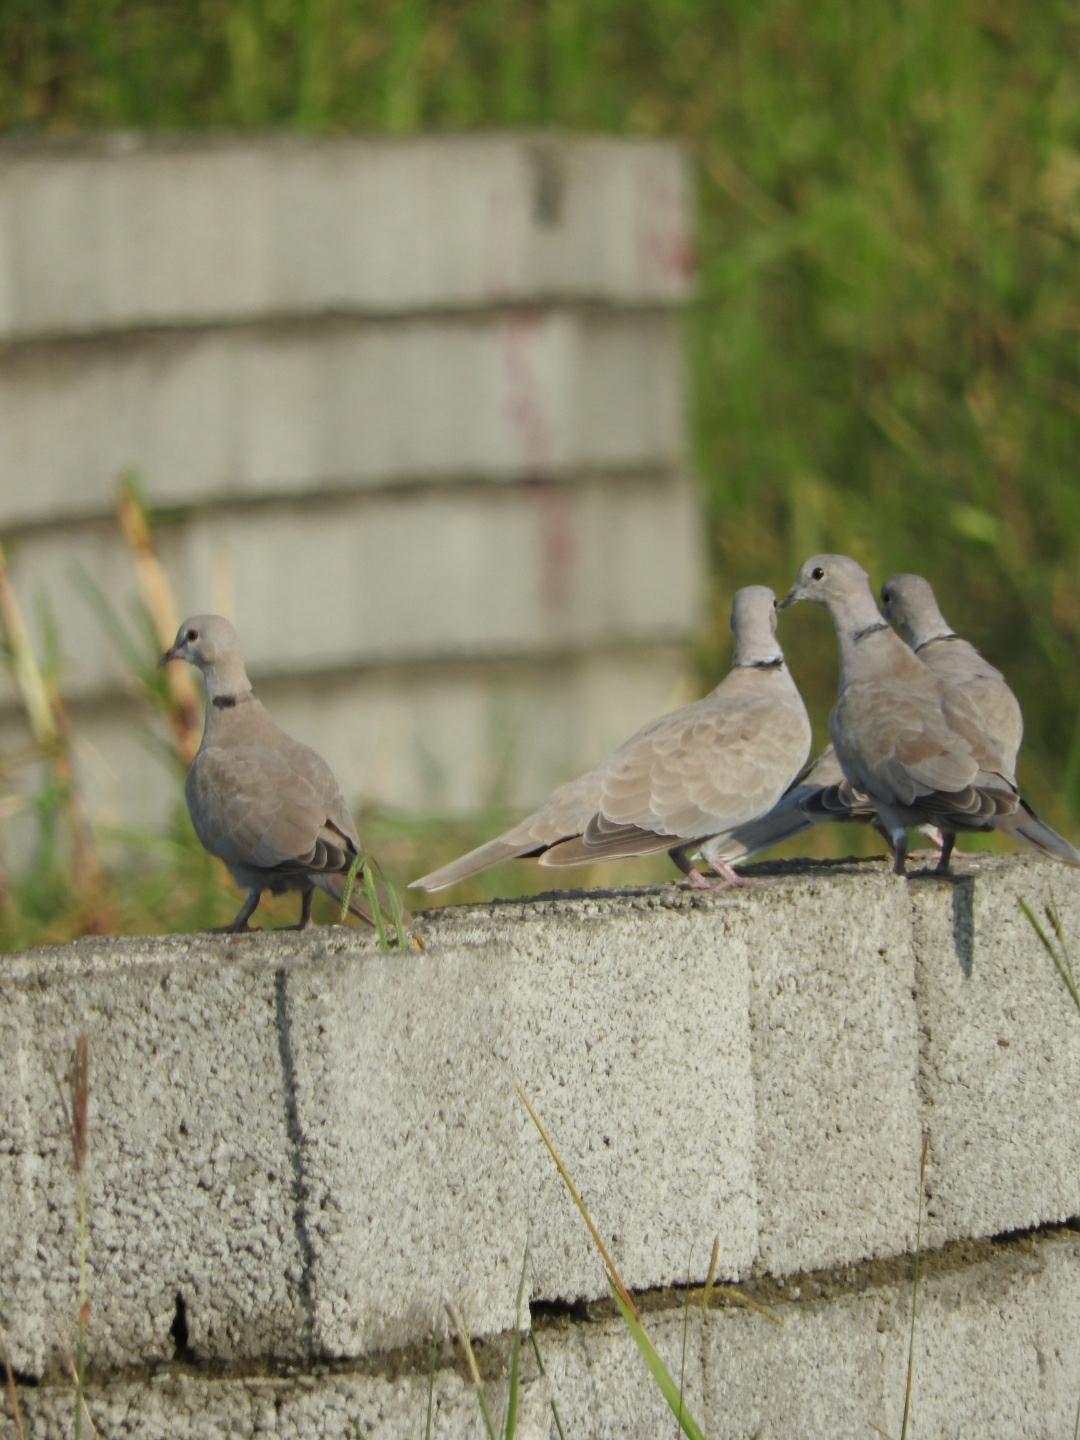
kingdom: Animalia
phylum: Chordata
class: Aves
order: Columbiformes
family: Columbidae
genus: Streptopelia
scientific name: Streptopelia decaocto
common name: Eurasian collared dove
